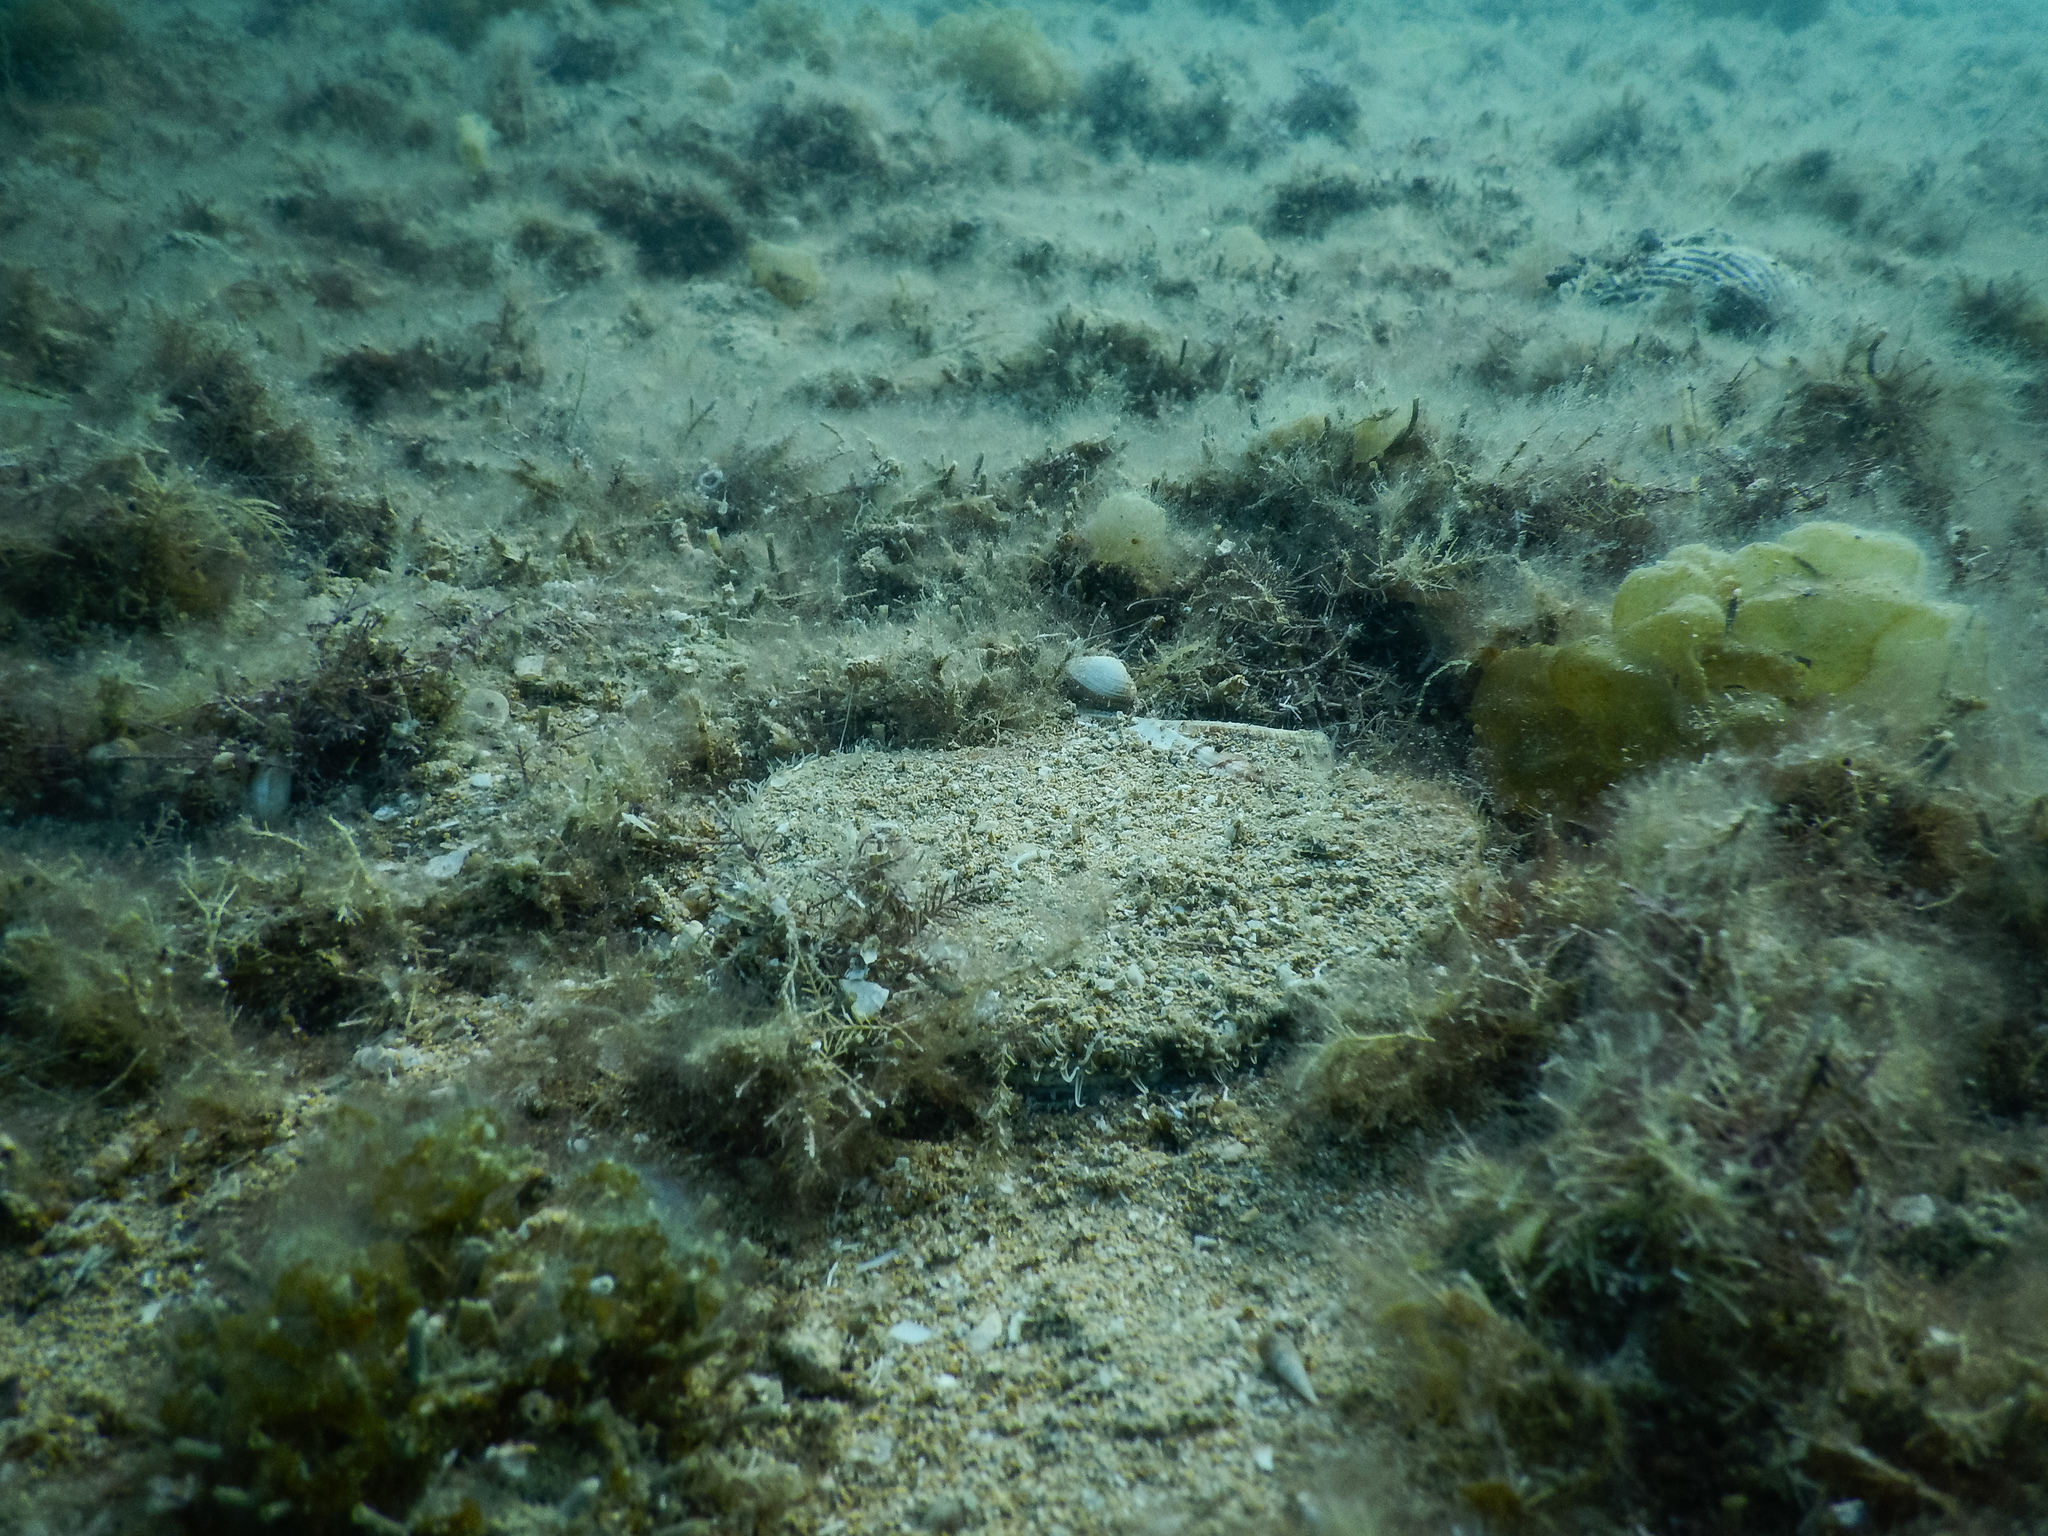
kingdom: Animalia
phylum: Mollusca
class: Bivalvia
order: Pectinida
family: Pectinidae
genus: Pecten
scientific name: Pecten novaezelandiae
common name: New zealand scallop
